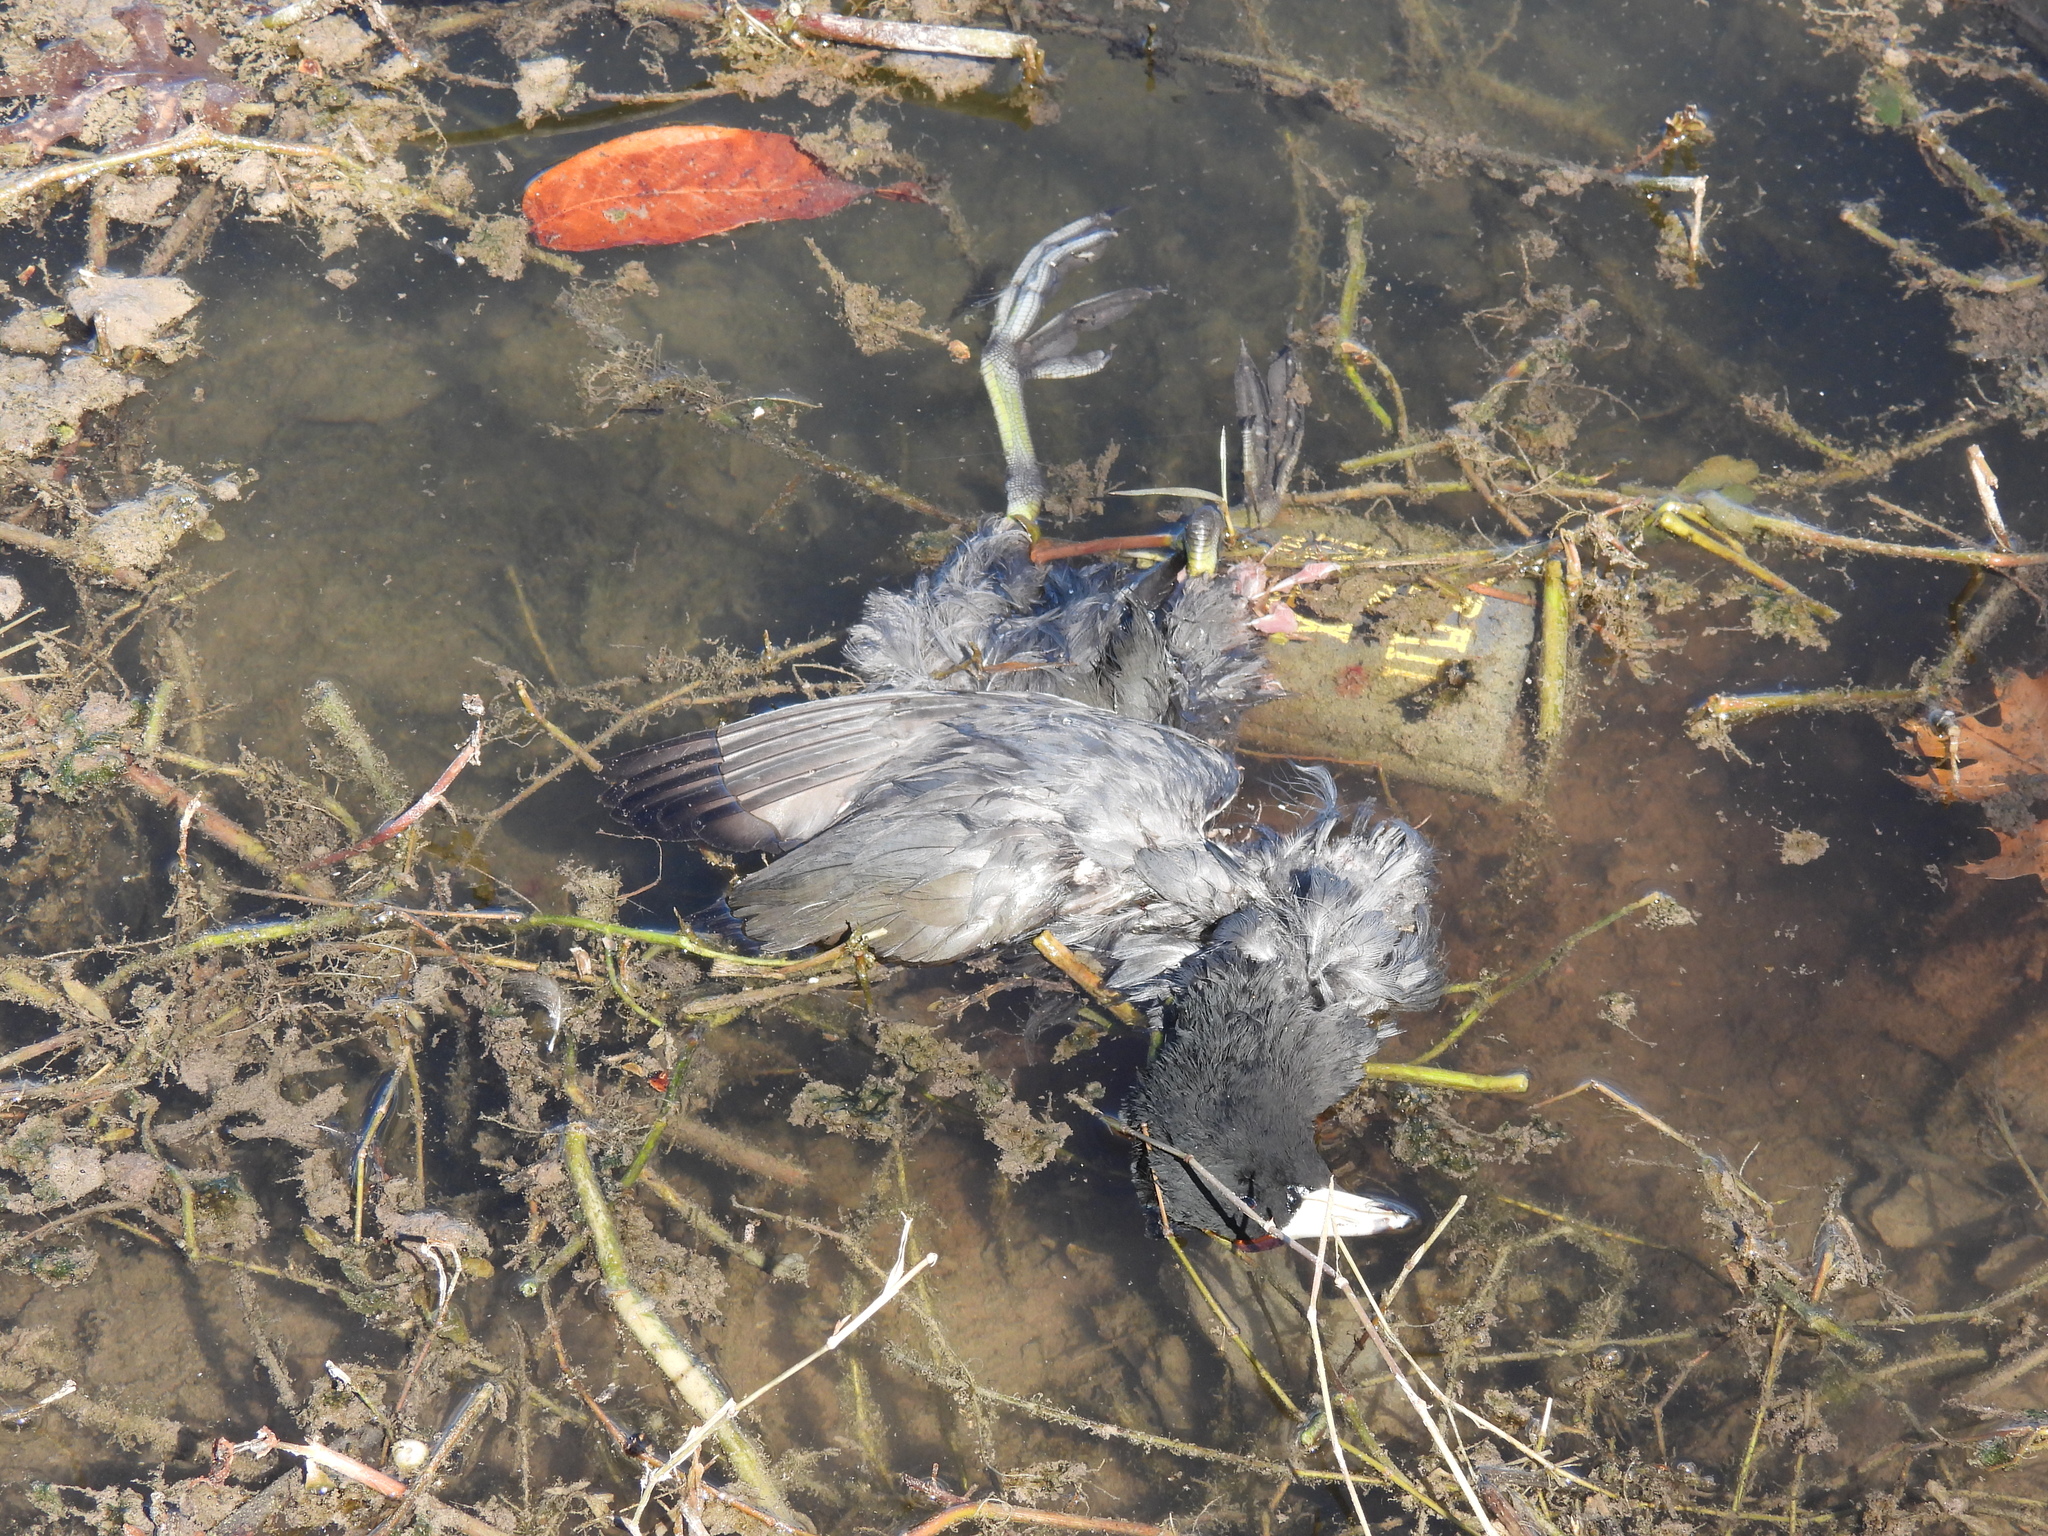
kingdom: Animalia
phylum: Chordata
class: Aves
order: Gruiformes
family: Rallidae
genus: Fulica
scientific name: Fulica americana
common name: American coot
